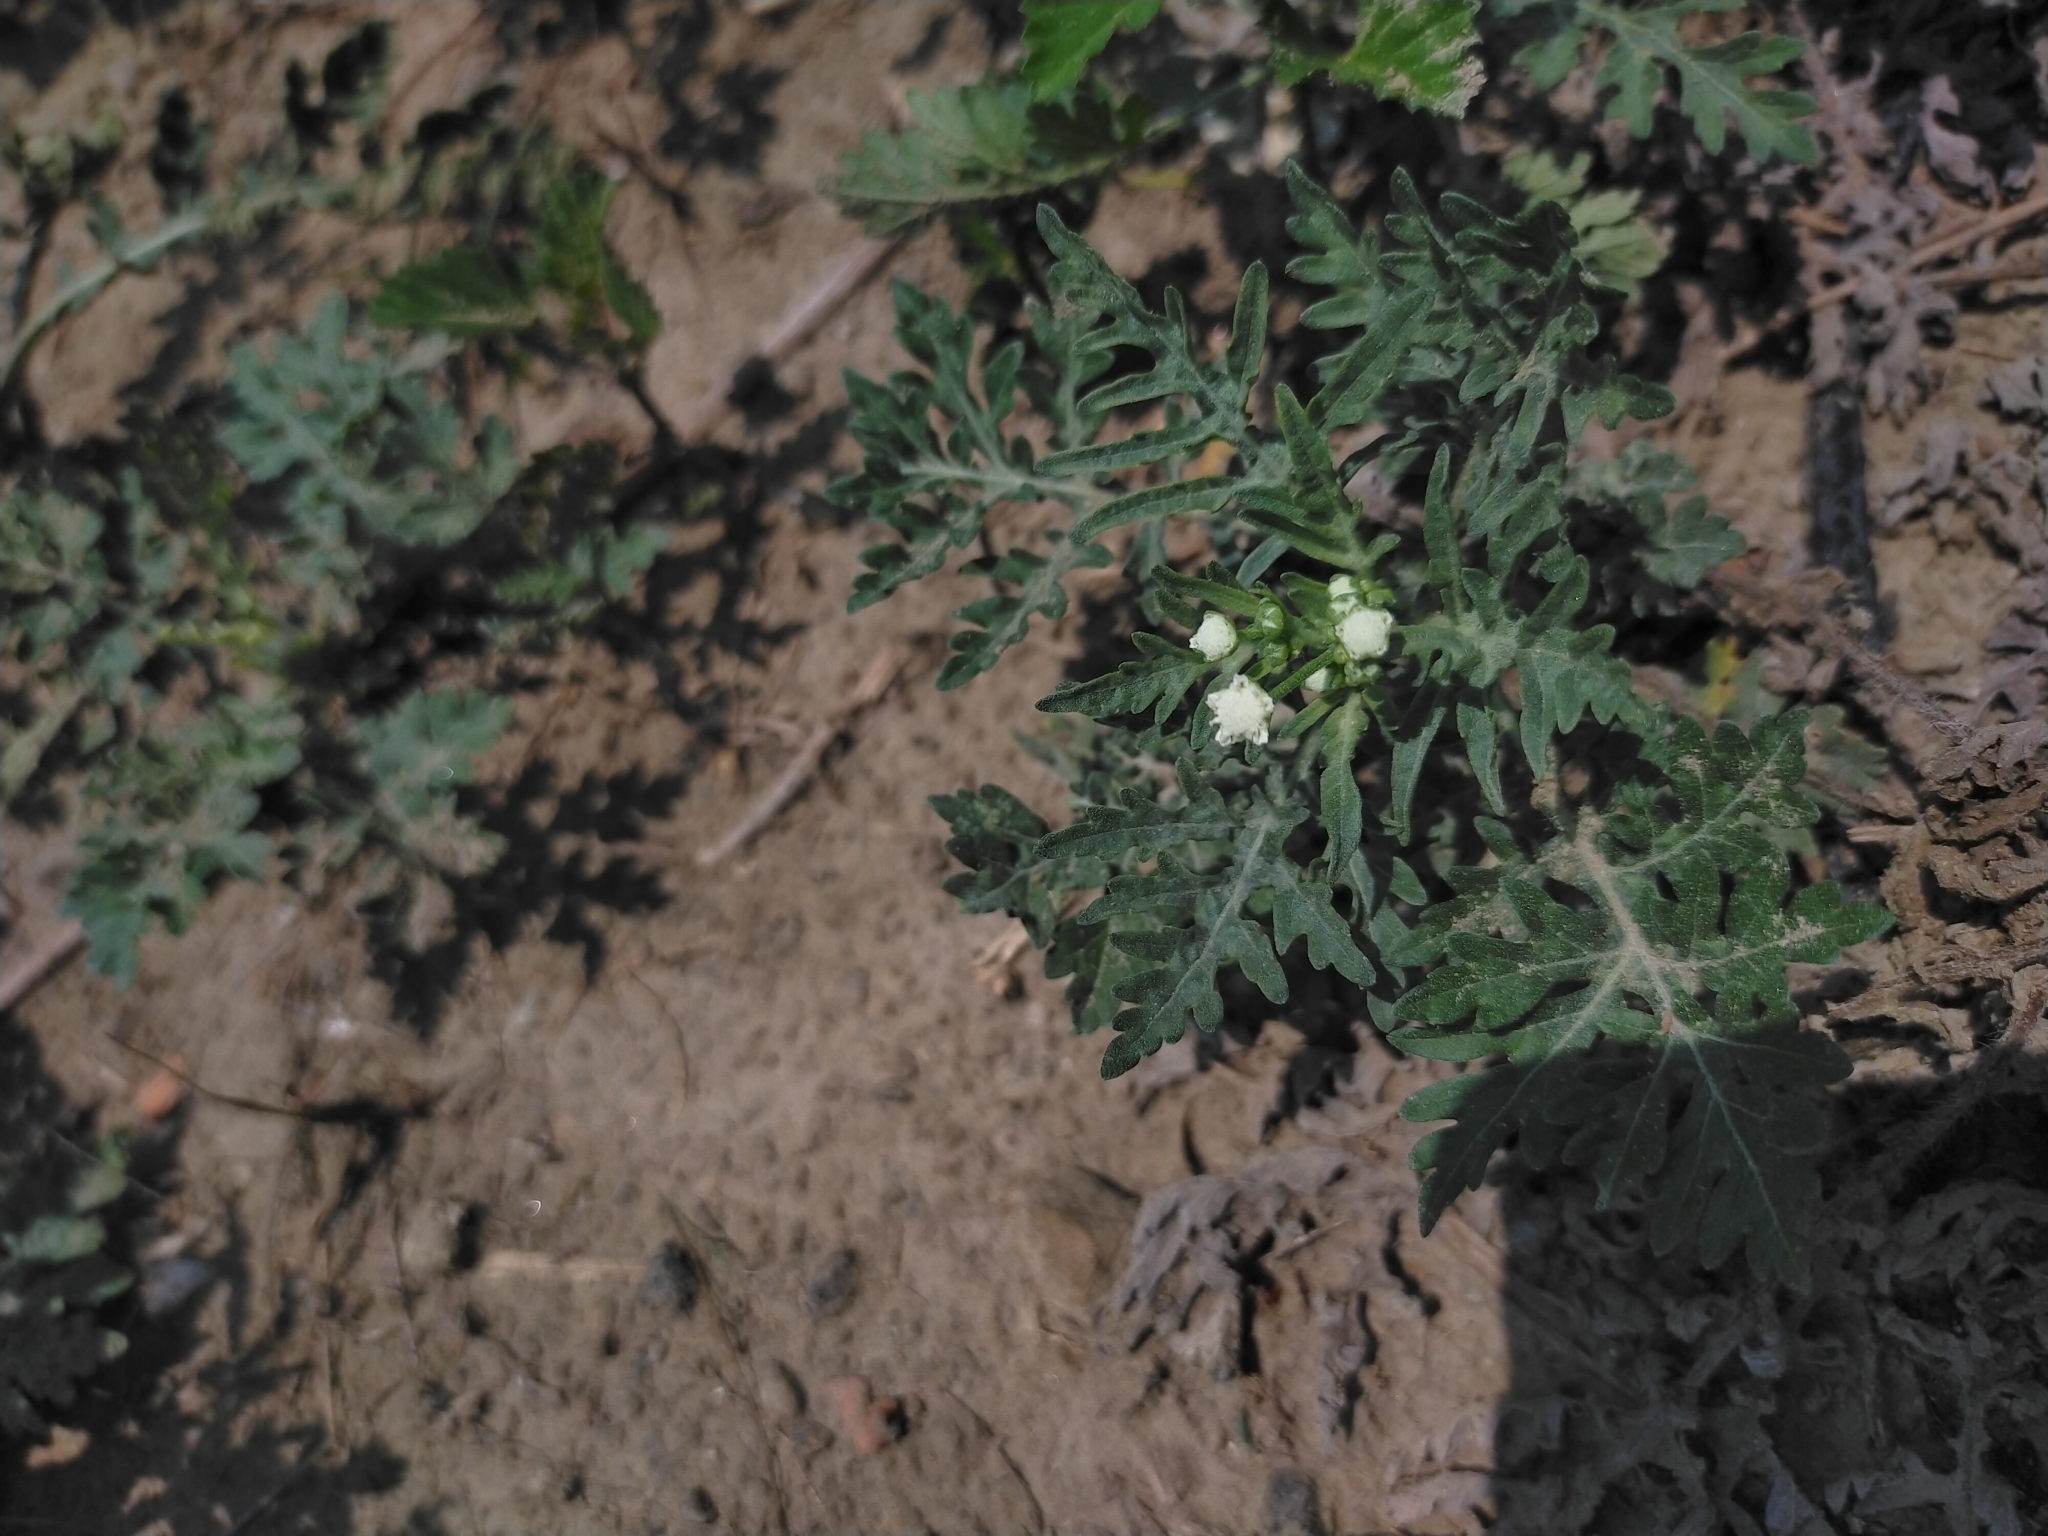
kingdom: Plantae
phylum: Tracheophyta
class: Magnoliopsida
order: Asterales
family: Asteraceae
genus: Parthenium
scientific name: Parthenium hysterophorus
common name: Santa maria feverfew
